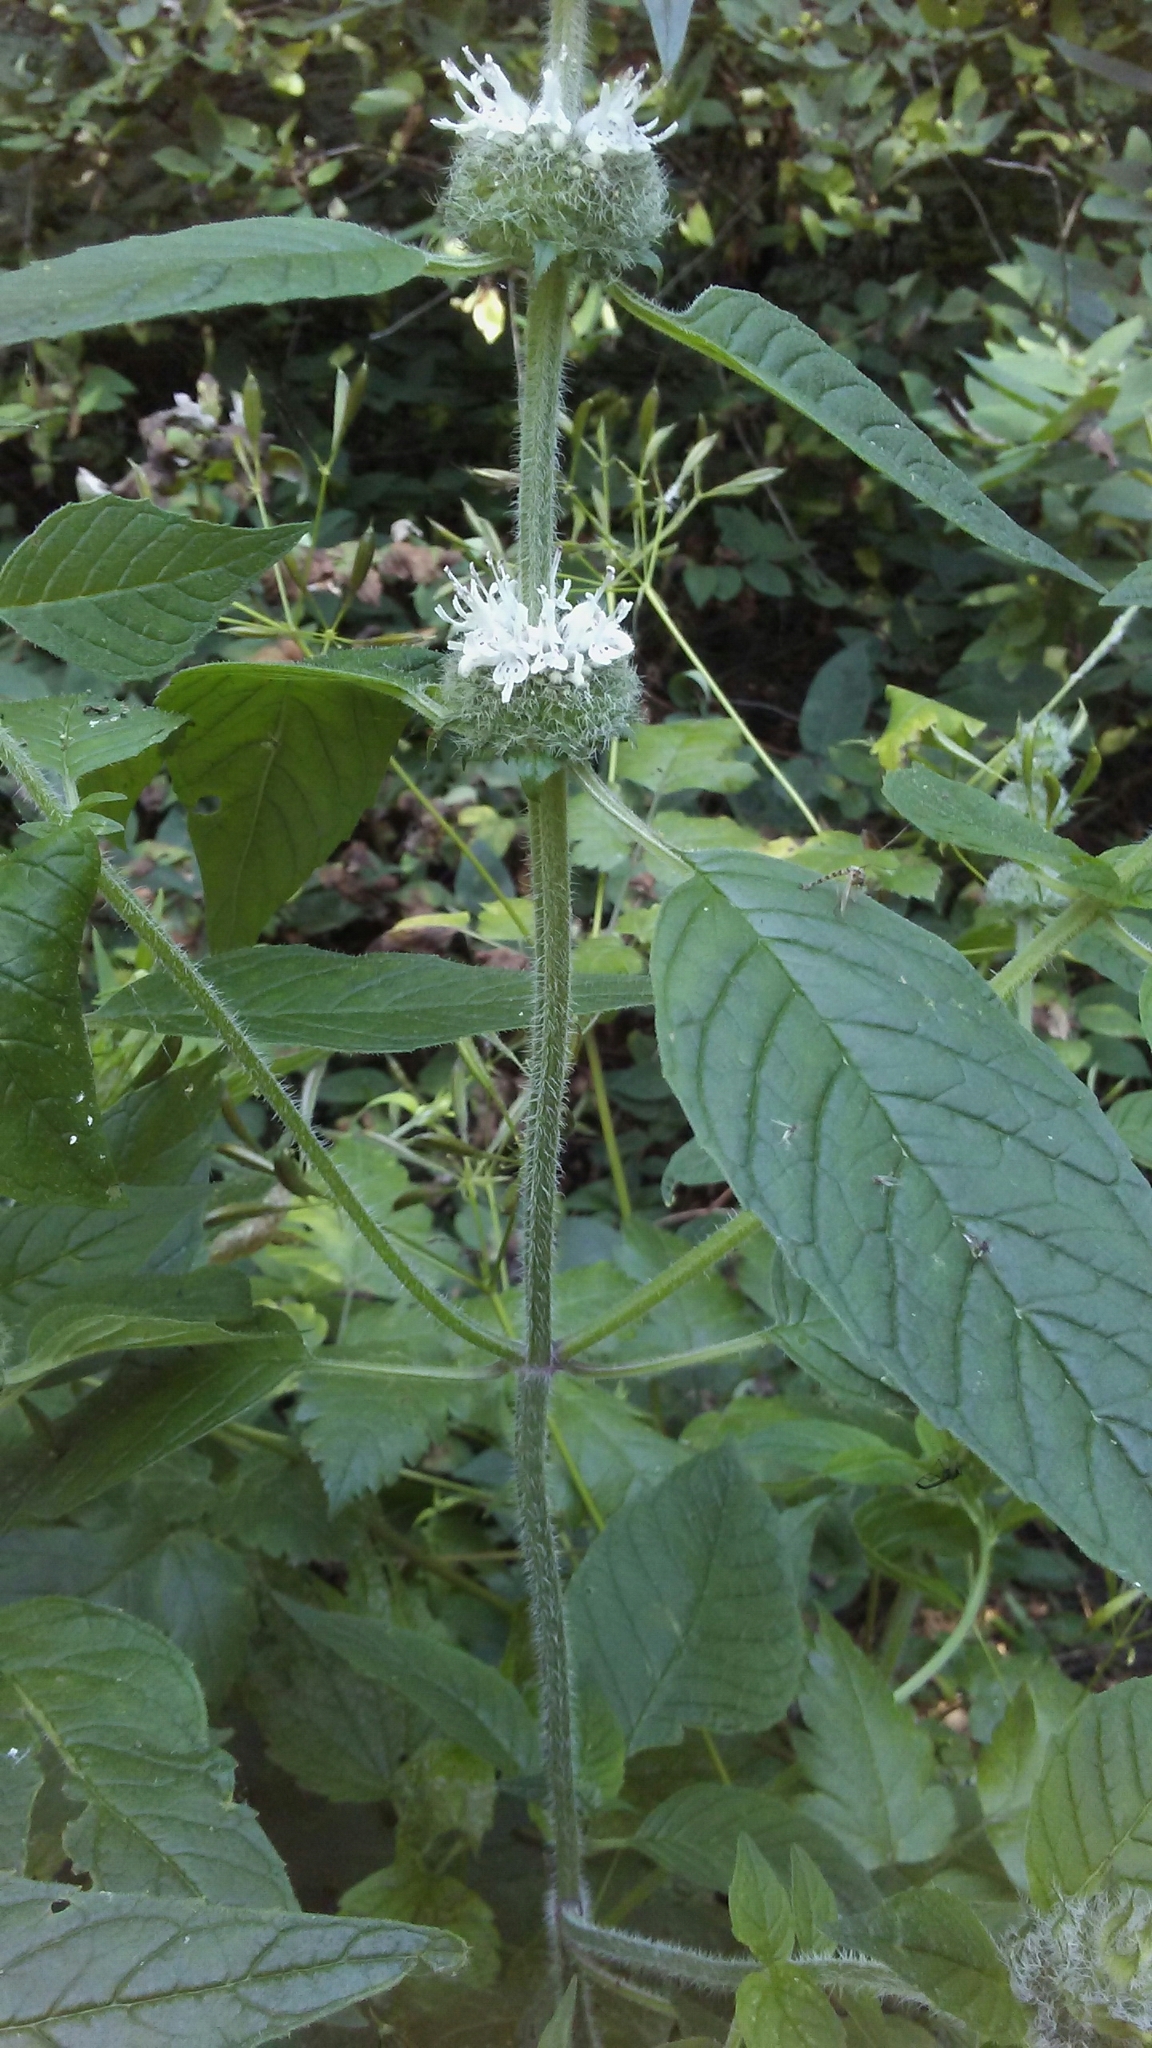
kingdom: Plantae
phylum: Tracheophyta
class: Magnoliopsida
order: Lamiales
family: Lamiaceae
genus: Blephilia
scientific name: Blephilia hirsuta
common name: Hairy blephilia
